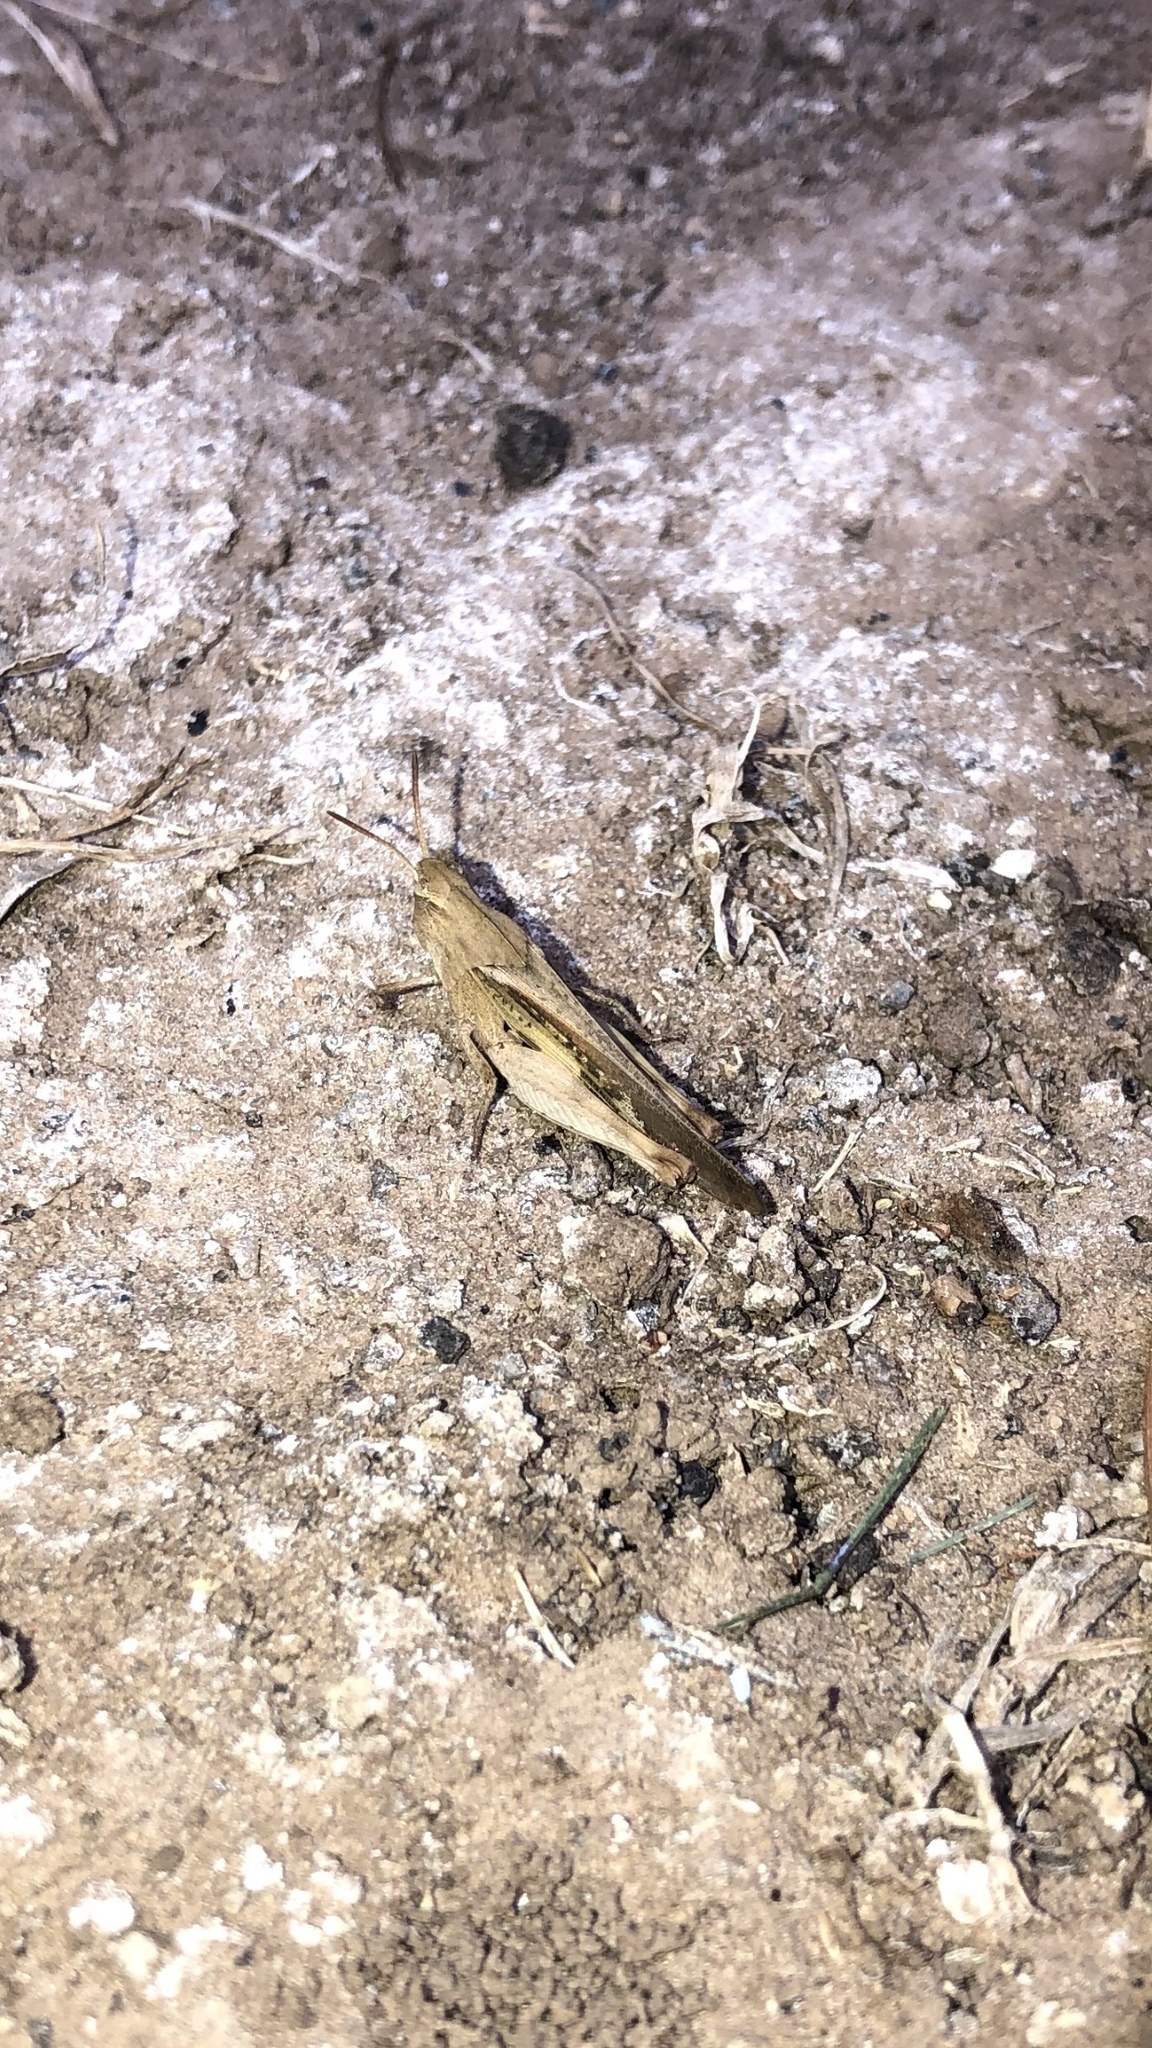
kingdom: Animalia
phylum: Arthropoda
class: Insecta
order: Orthoptera
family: Acrididae
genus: Chortophaga
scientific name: Chortophaga viridifasciata
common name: Green-striped grasshopper
